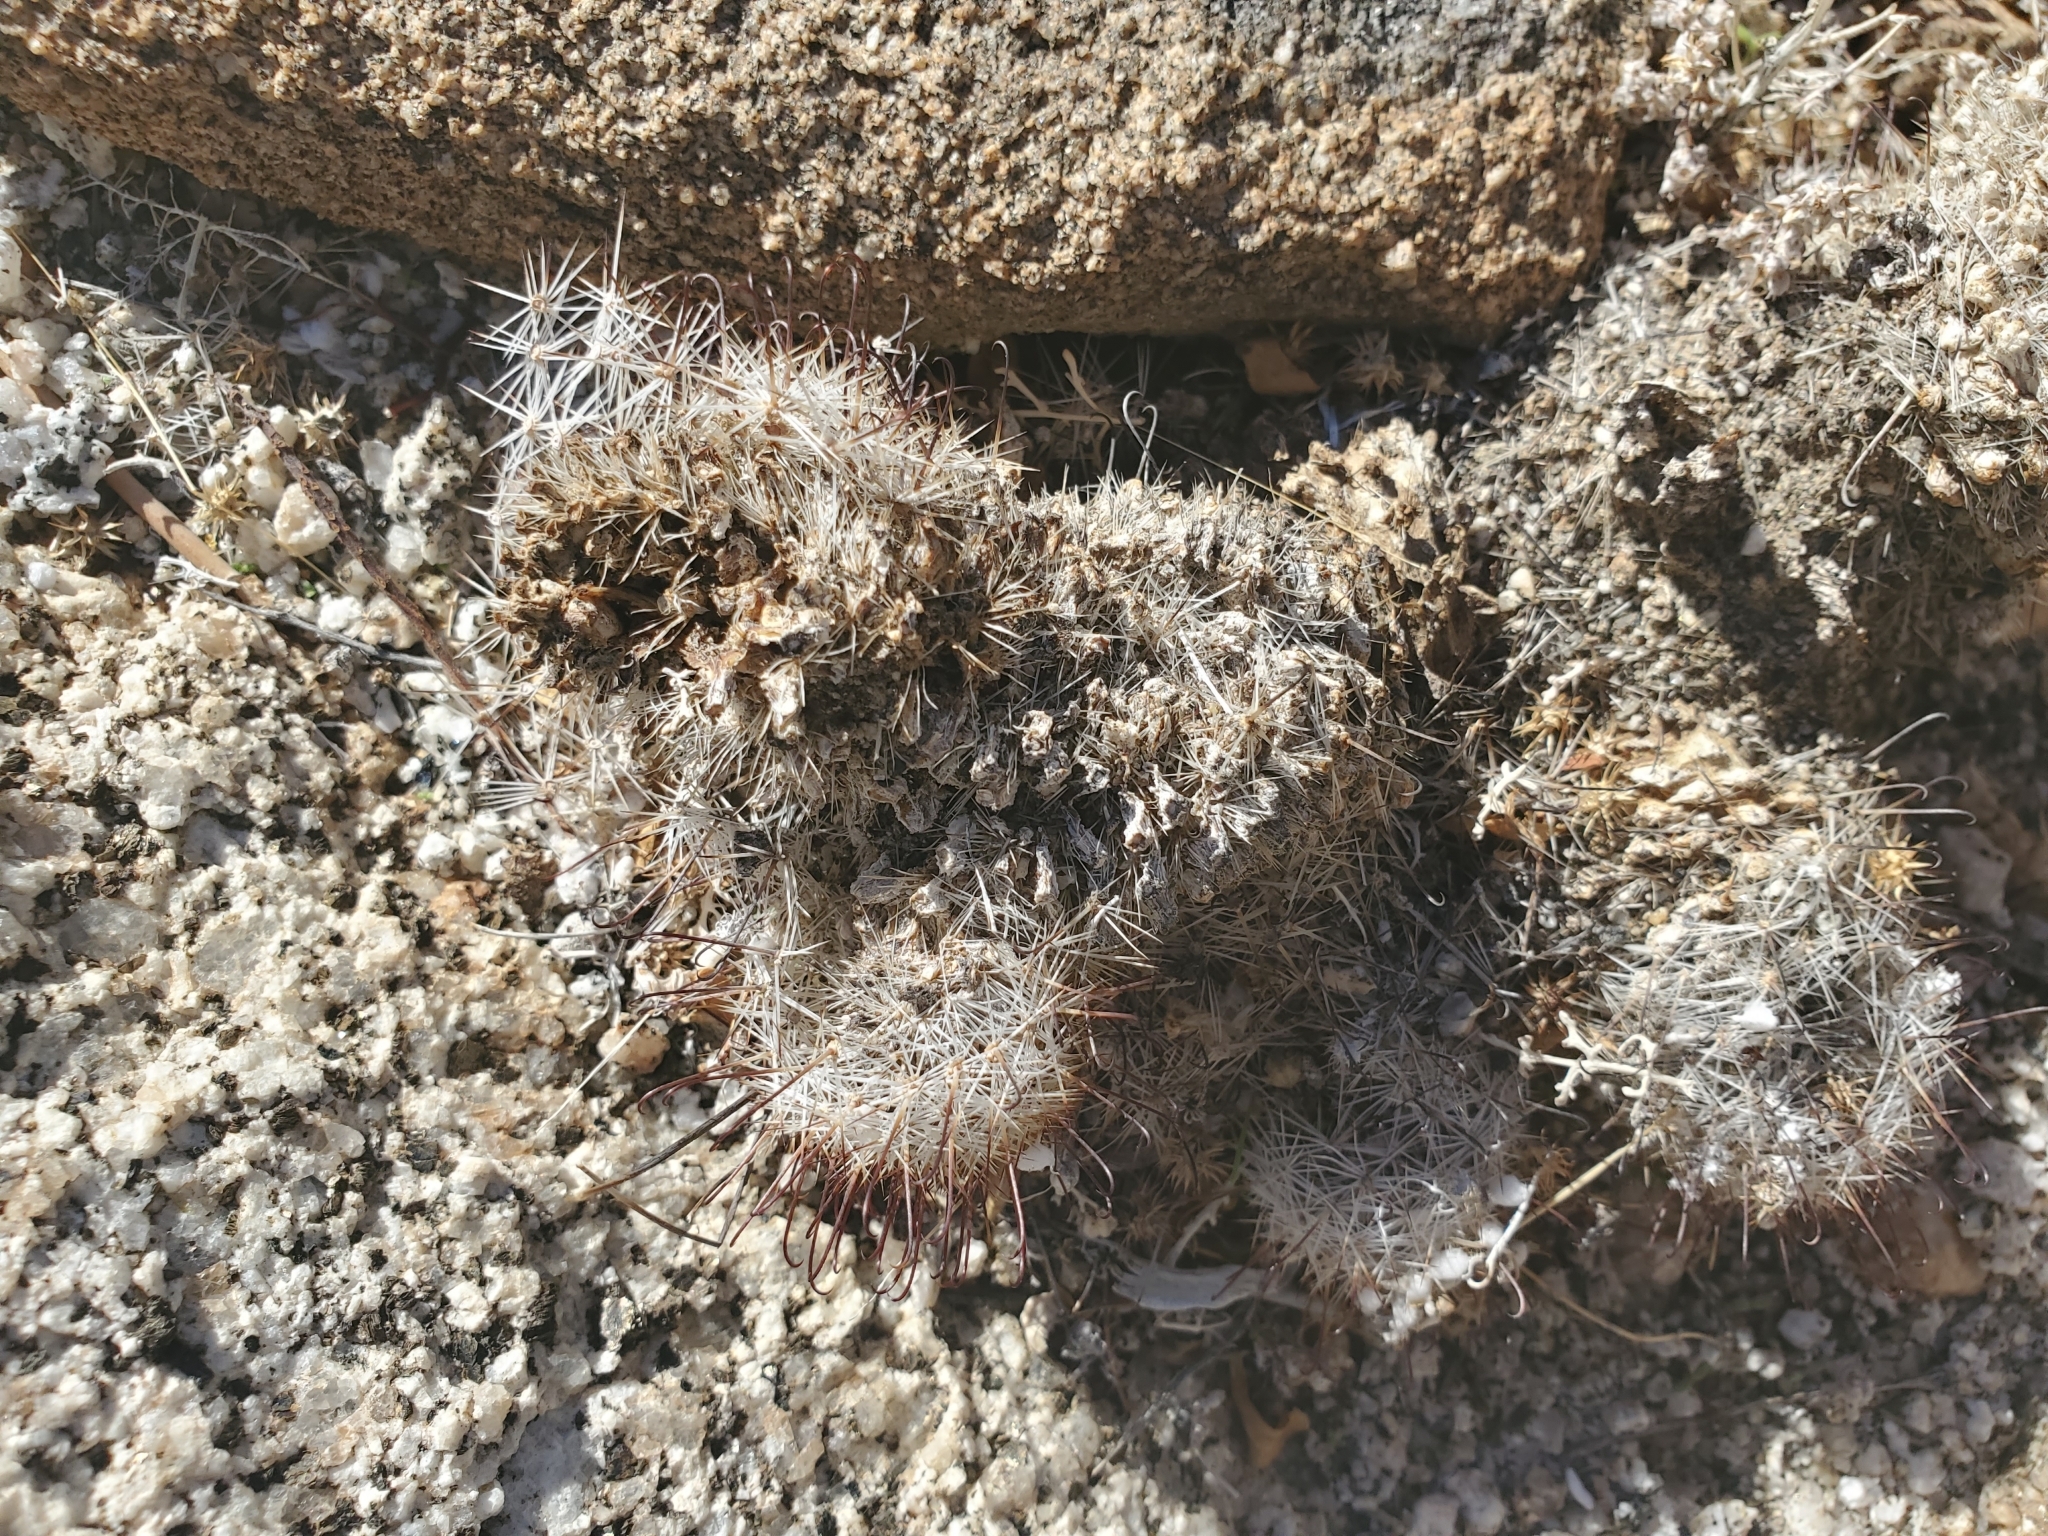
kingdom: Plantae
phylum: Tracheophyta
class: Magnoliopsida
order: Caryophyllales
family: Cactaceae
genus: Cochemiea
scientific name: Cochemiea dioica
